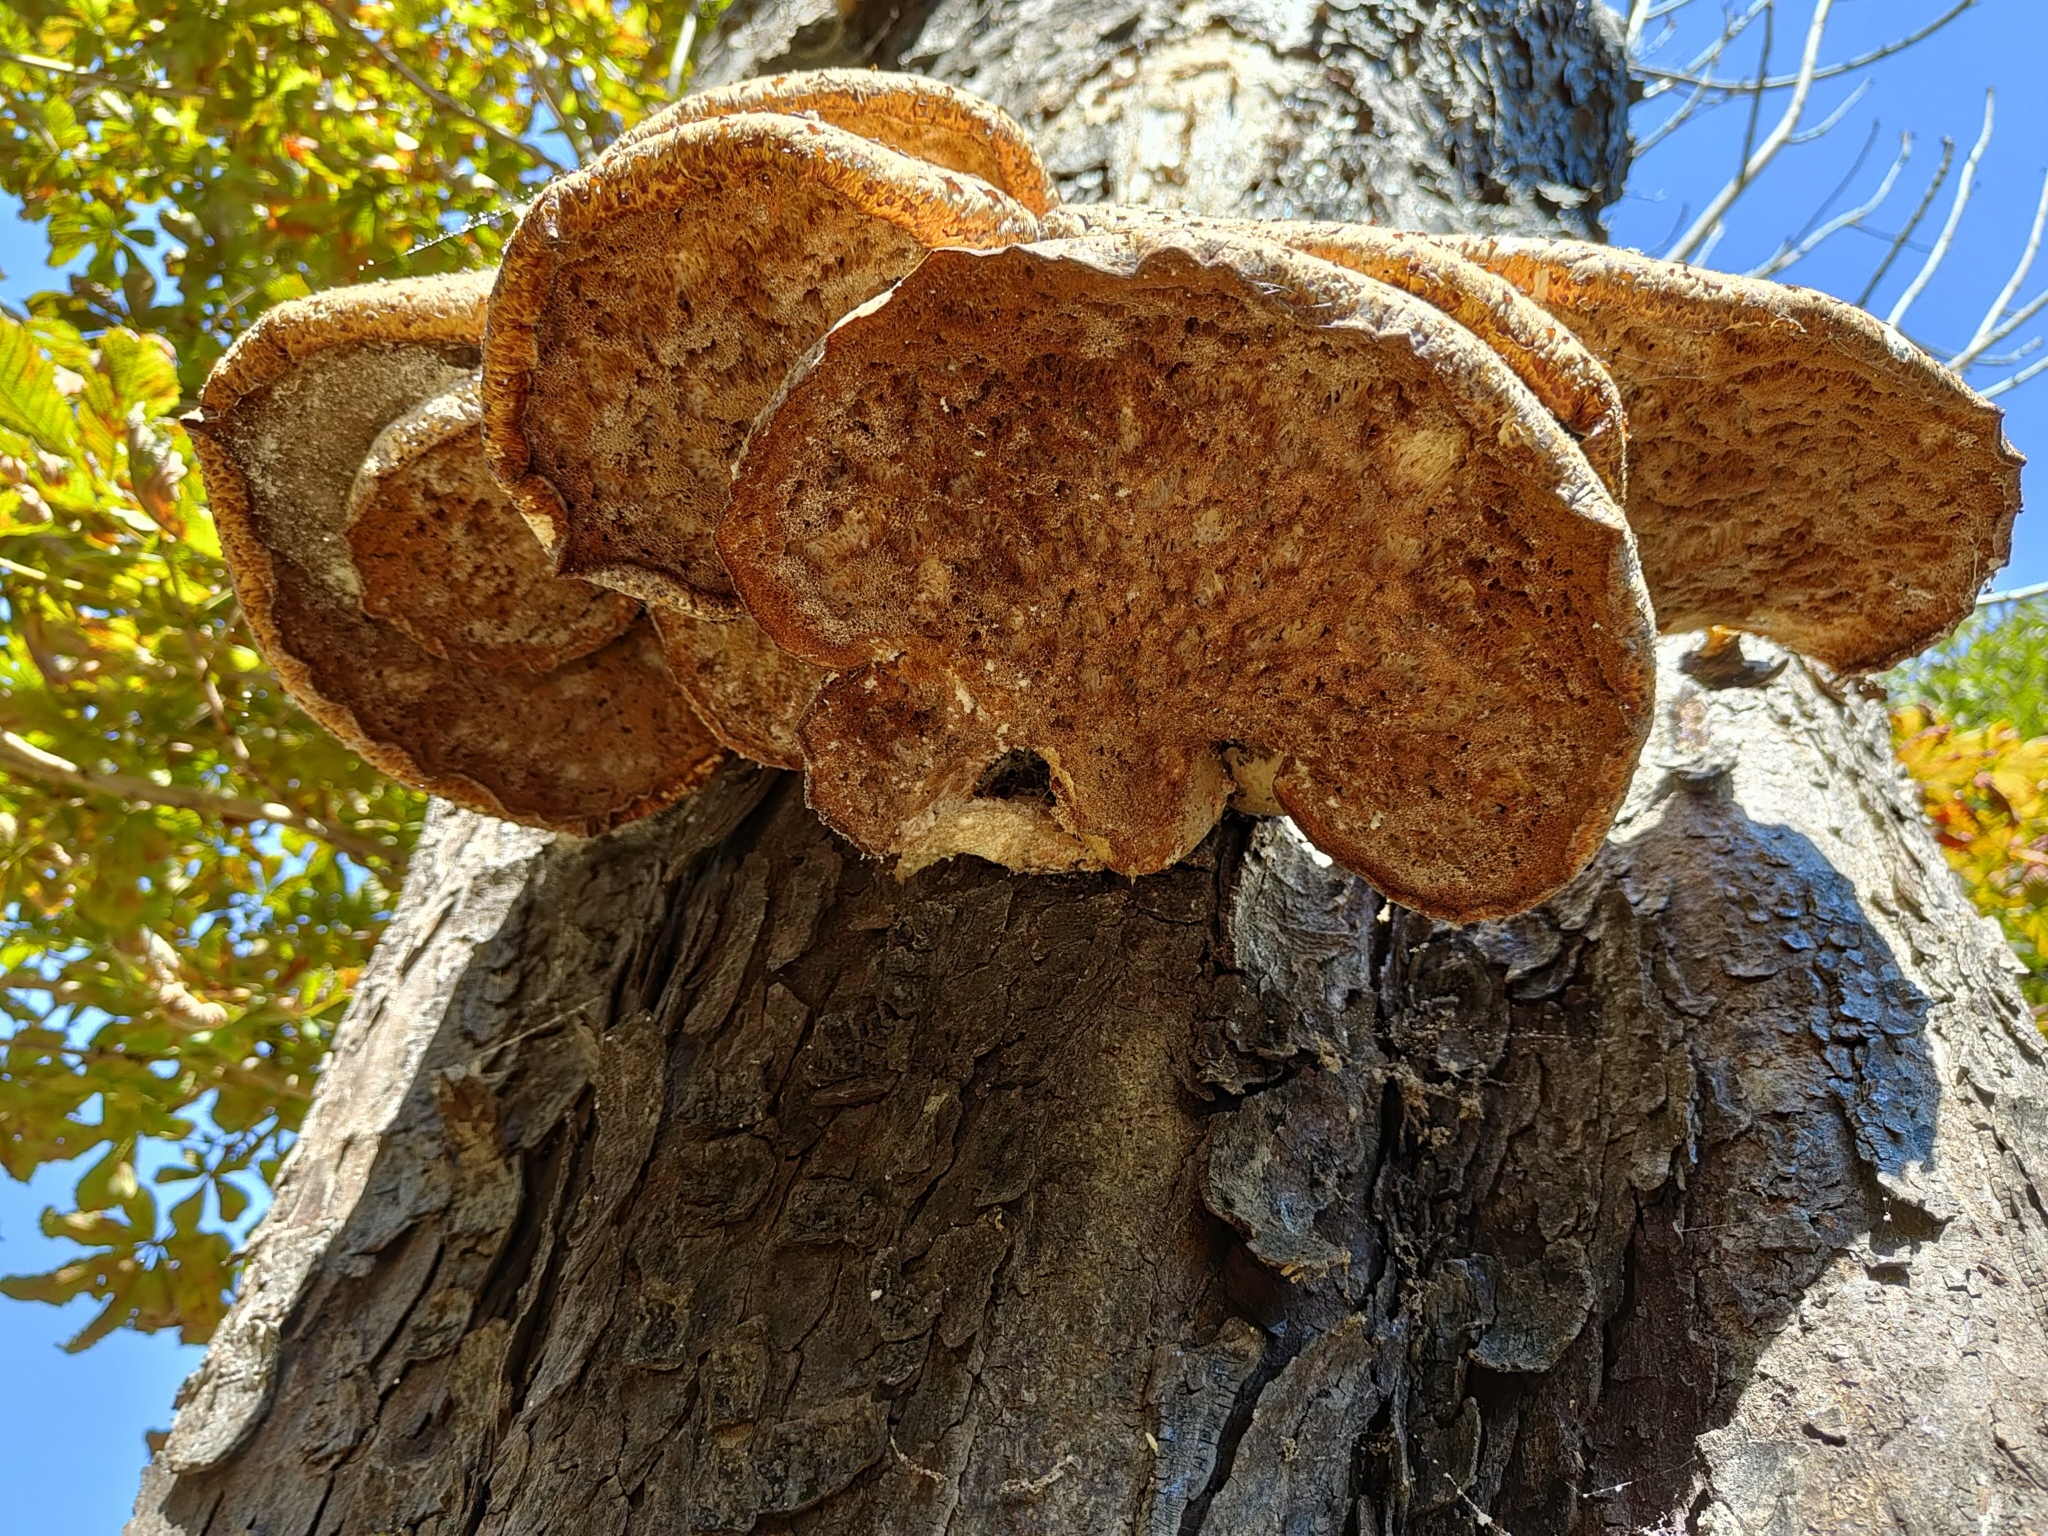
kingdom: Fungi
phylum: Basidiomycota
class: Agaricomycetes
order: Polyporales
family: Polyporaceae
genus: Cerioporus
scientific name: Cerioporus squamosus
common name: Dryad's saddle
